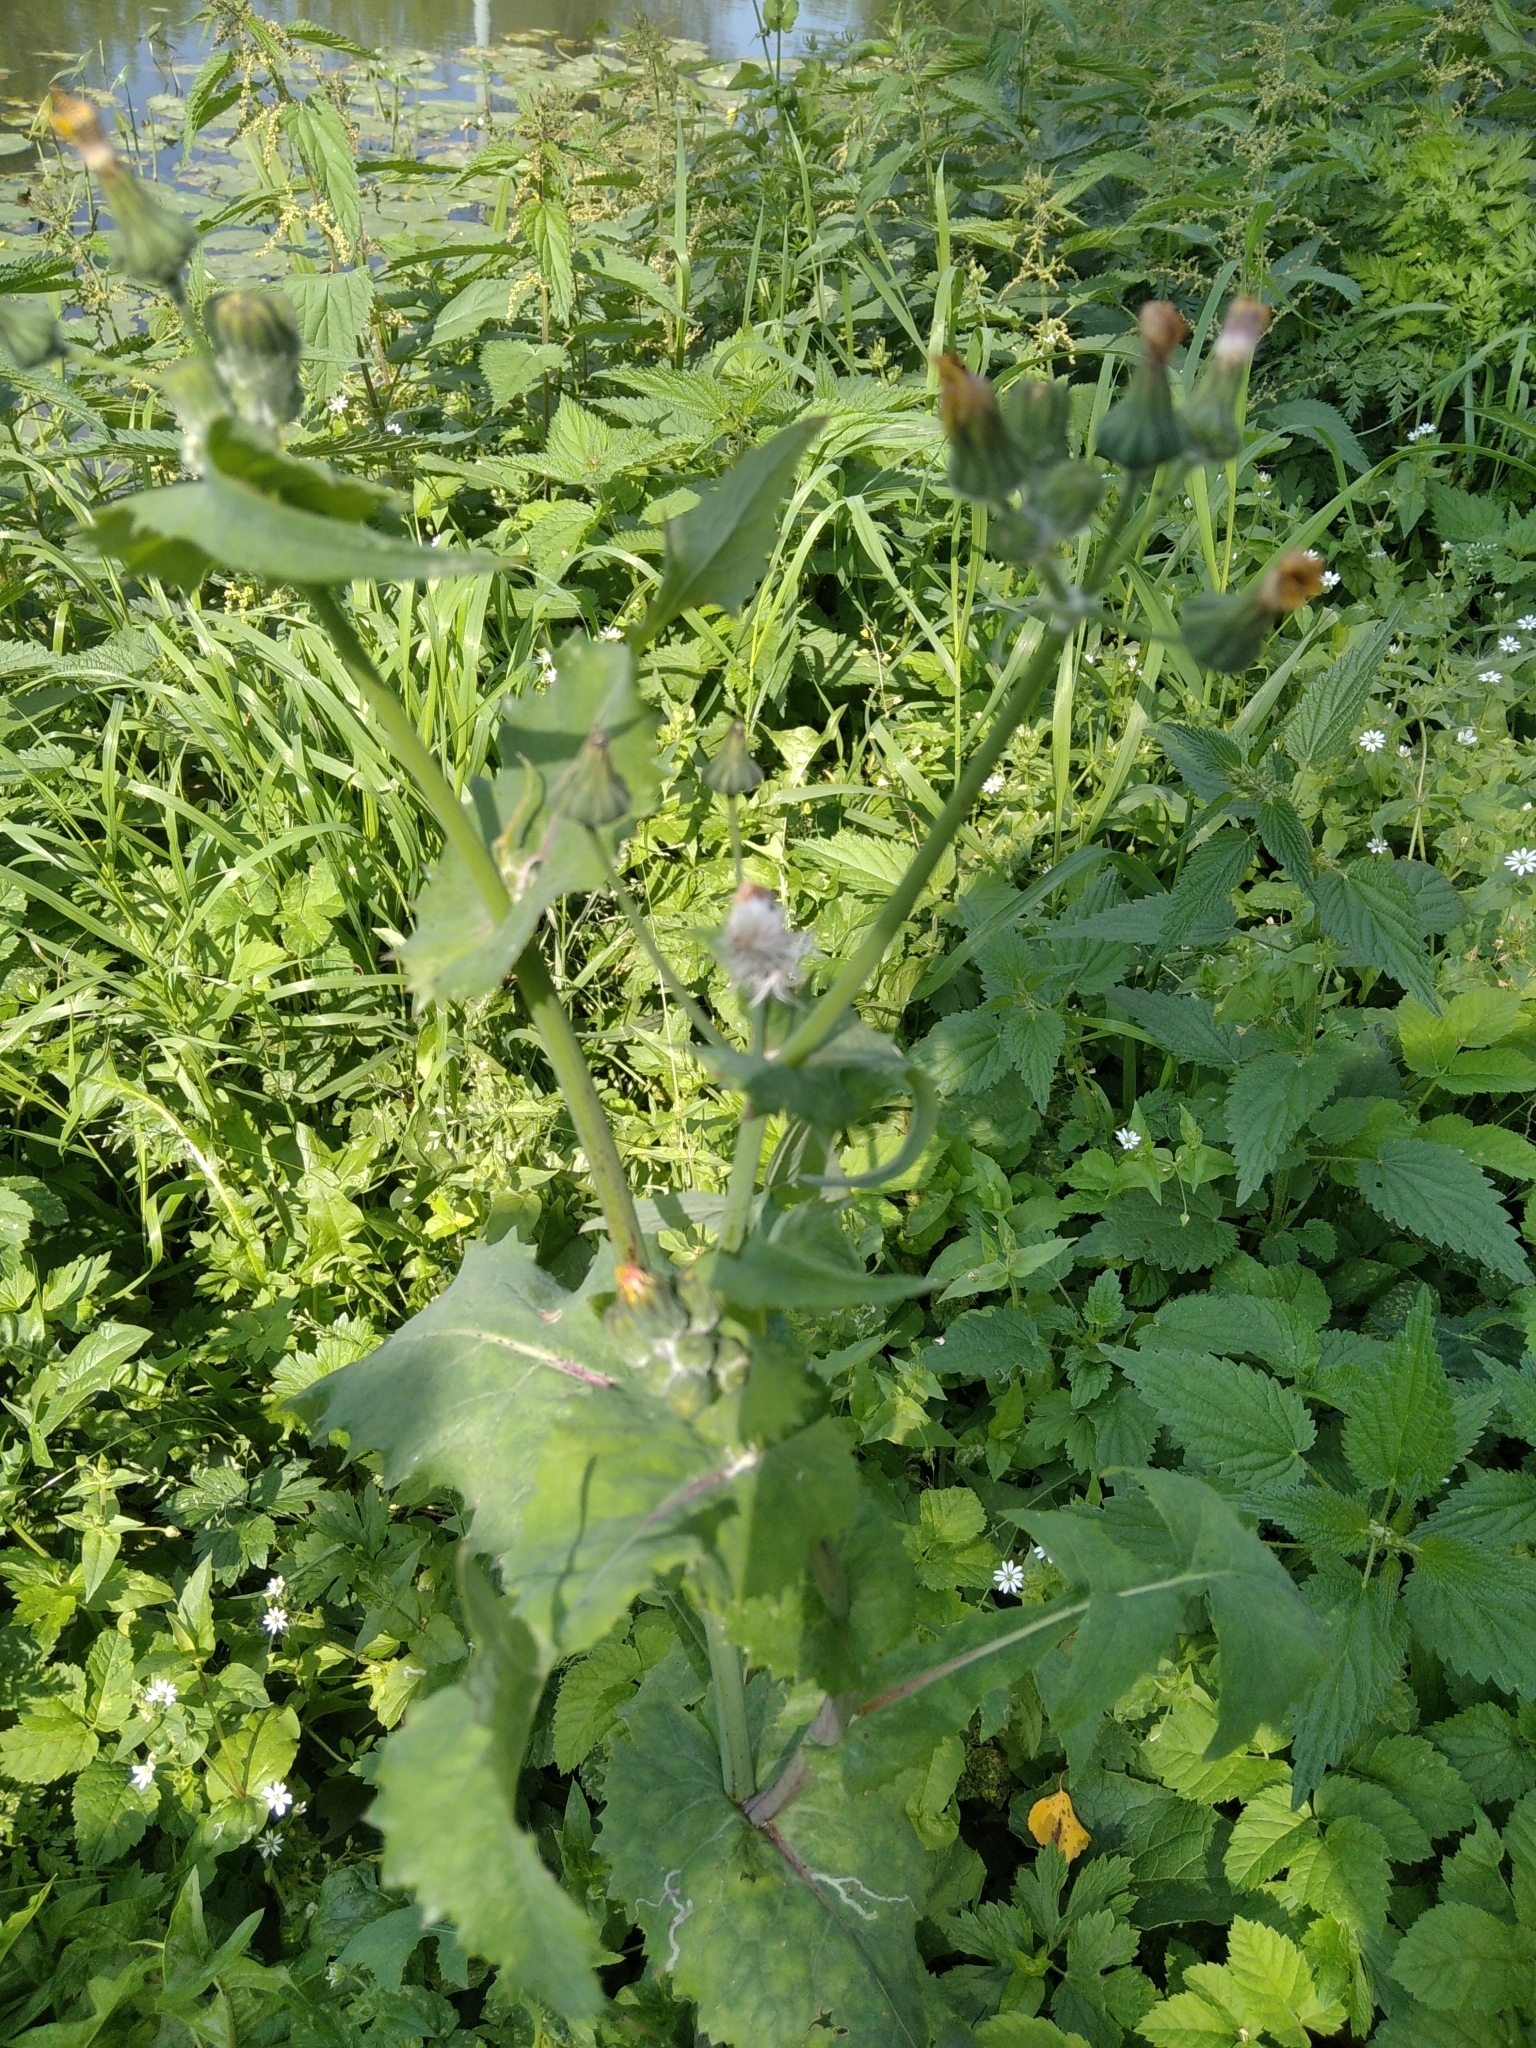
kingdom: Plantae
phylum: Tracheophyta
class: Magnoliopsida
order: Asterales
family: Asteraceae
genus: Sonchus
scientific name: Sonchus oleraceus
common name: Common sowthistle
